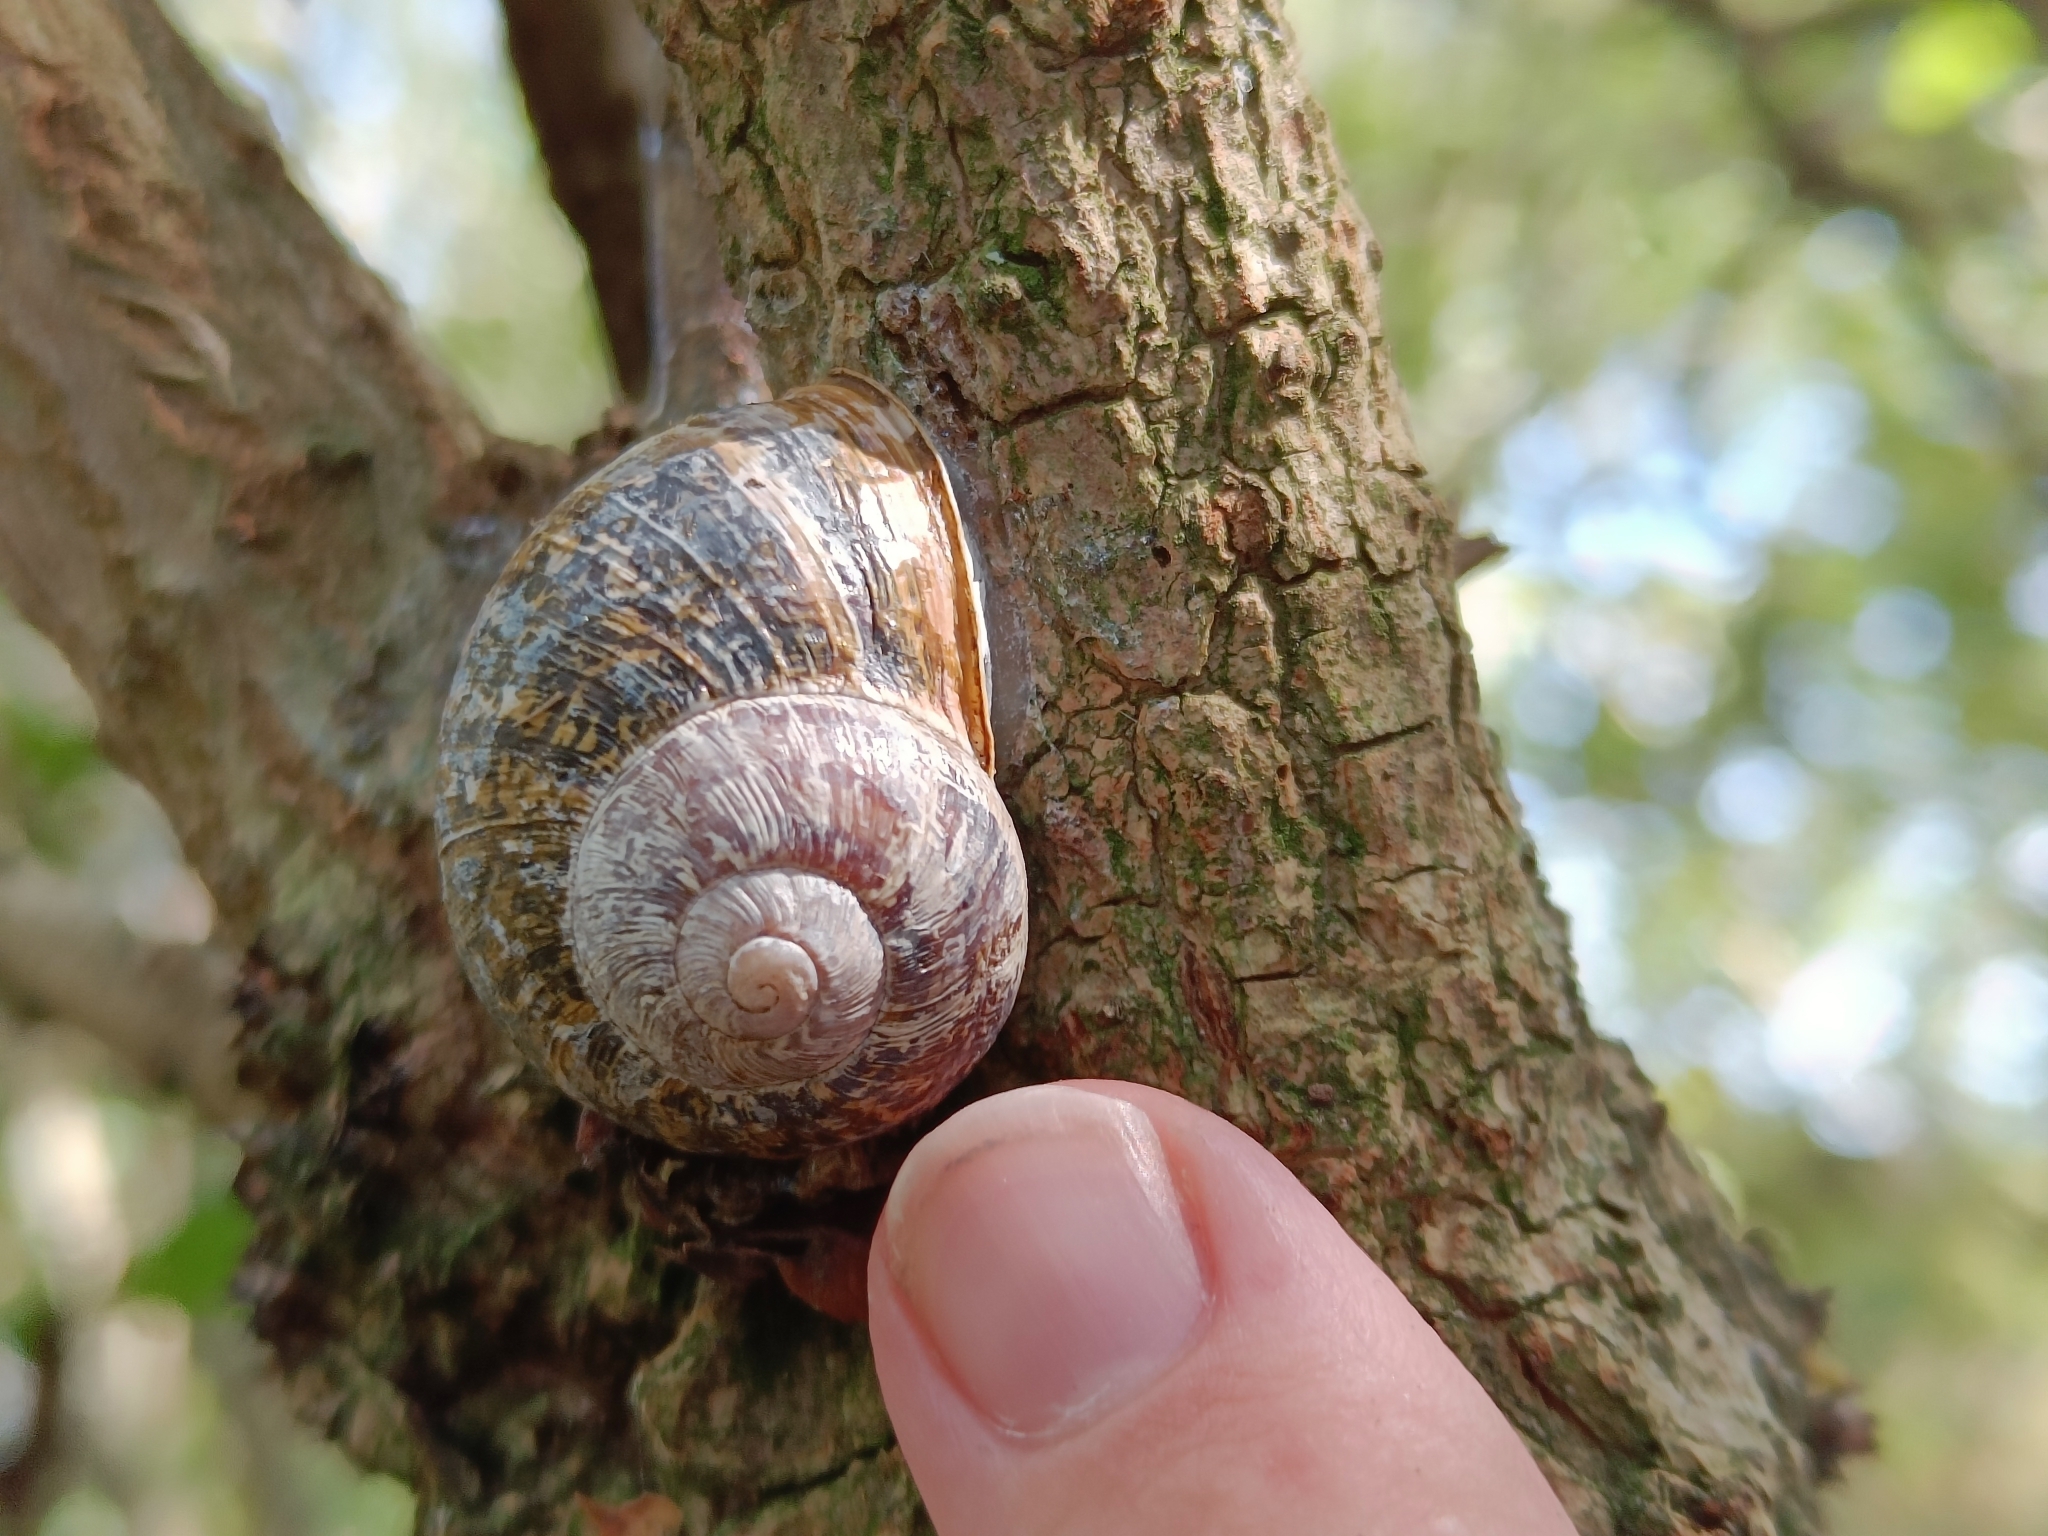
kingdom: Animalia
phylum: Mollusca
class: Gastropoda
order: Stylommatophora
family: Helicidae
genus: Cornu
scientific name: Cornu aspersum
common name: Brown garden snail
